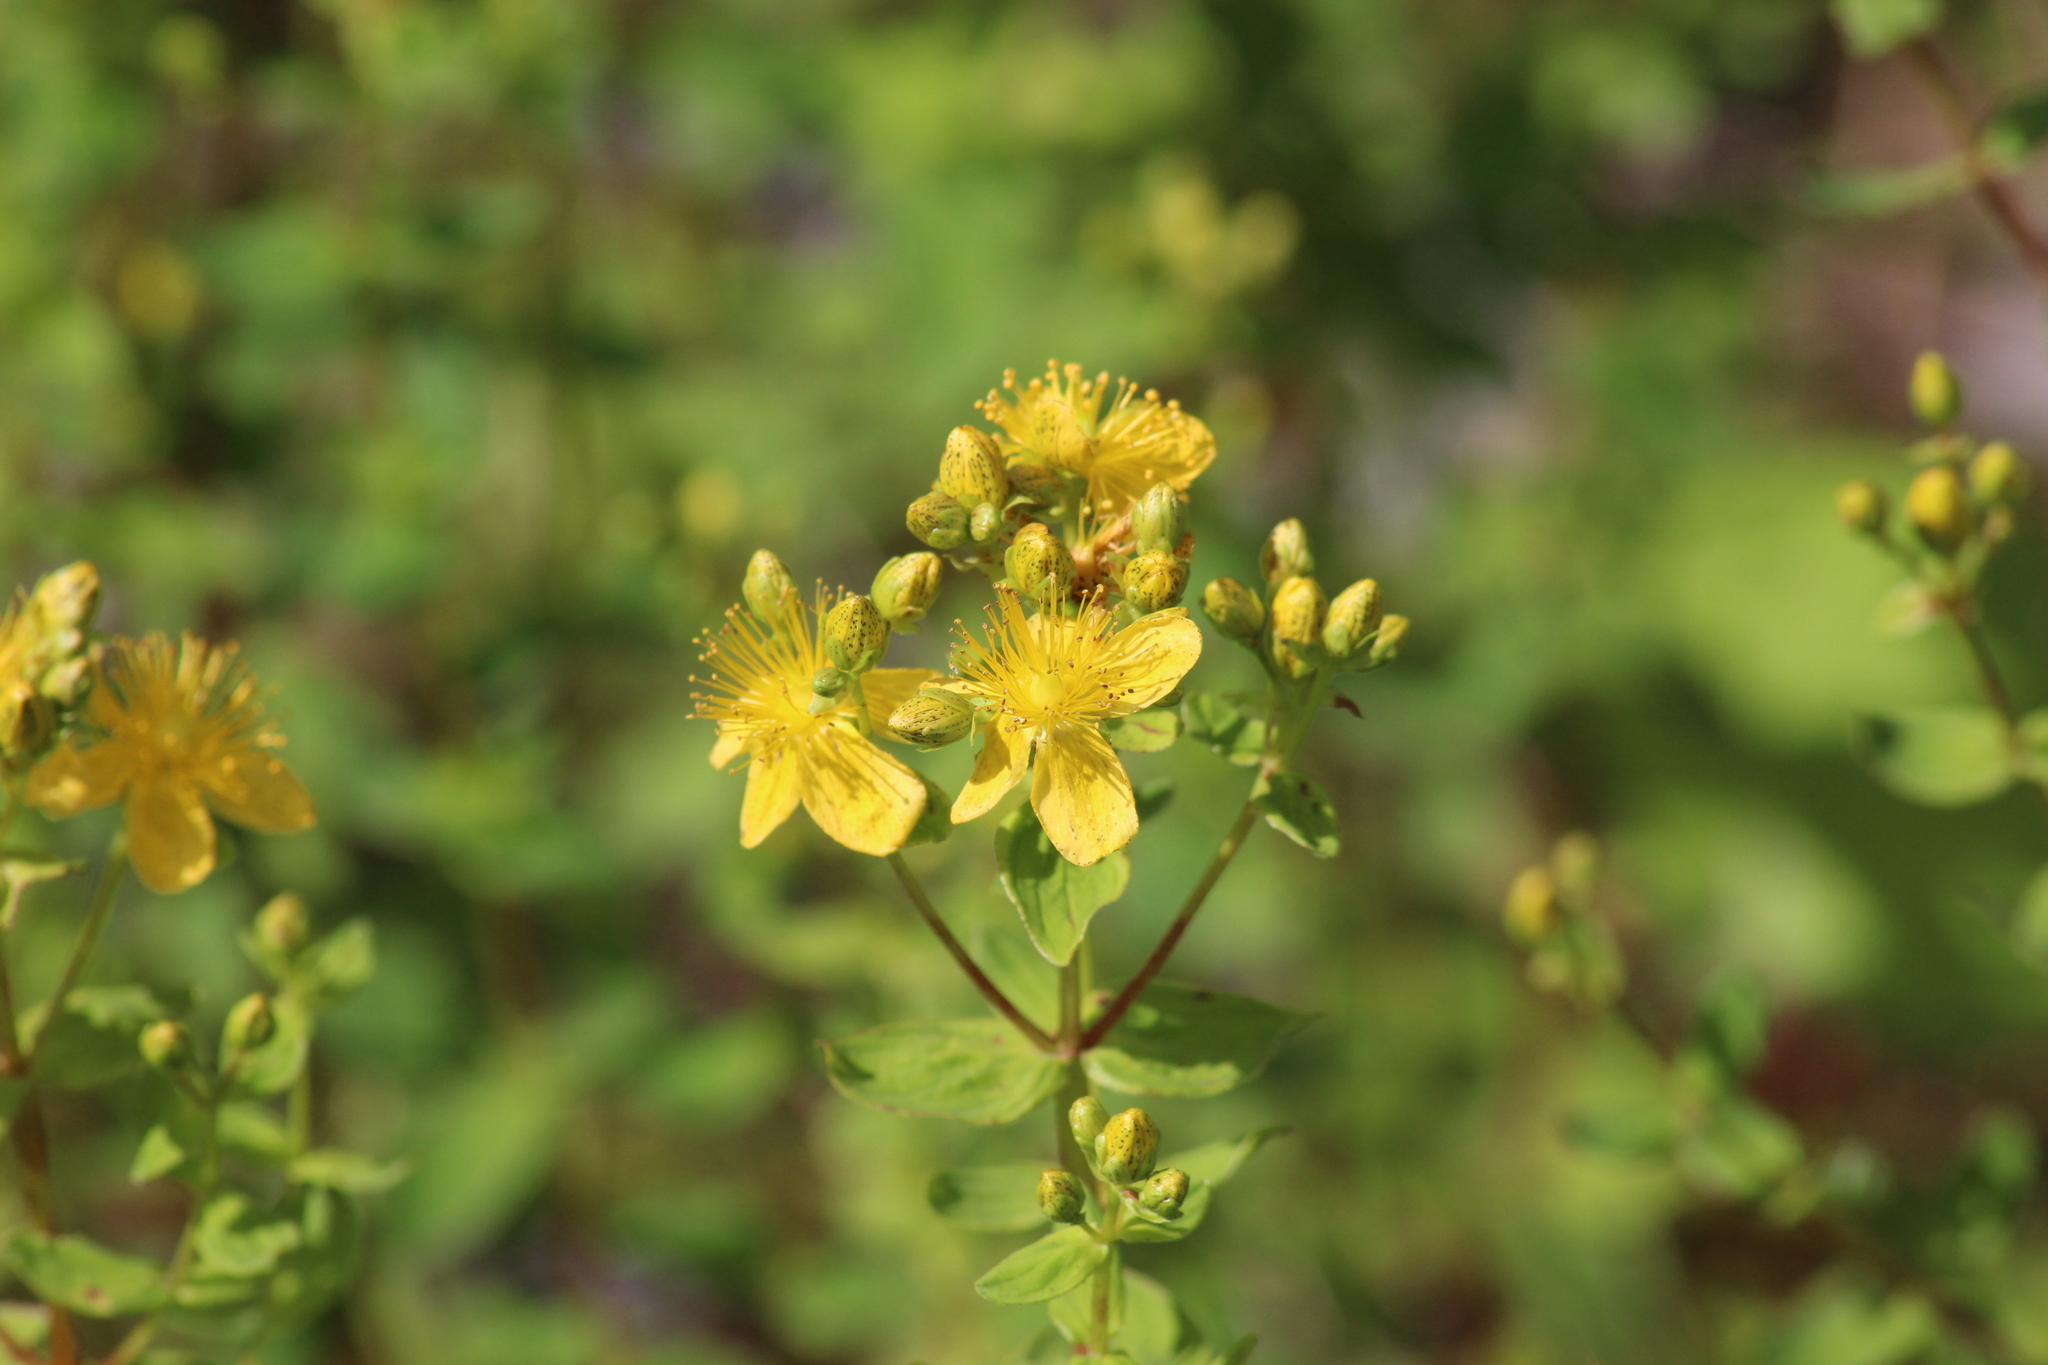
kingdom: Plantae
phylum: Tracheophyta
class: Magnoliopsida
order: Malpighiales
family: Hypericaceae
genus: Hypericum
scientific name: Hypericum maculatum
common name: Imperforate st. john's-wort
